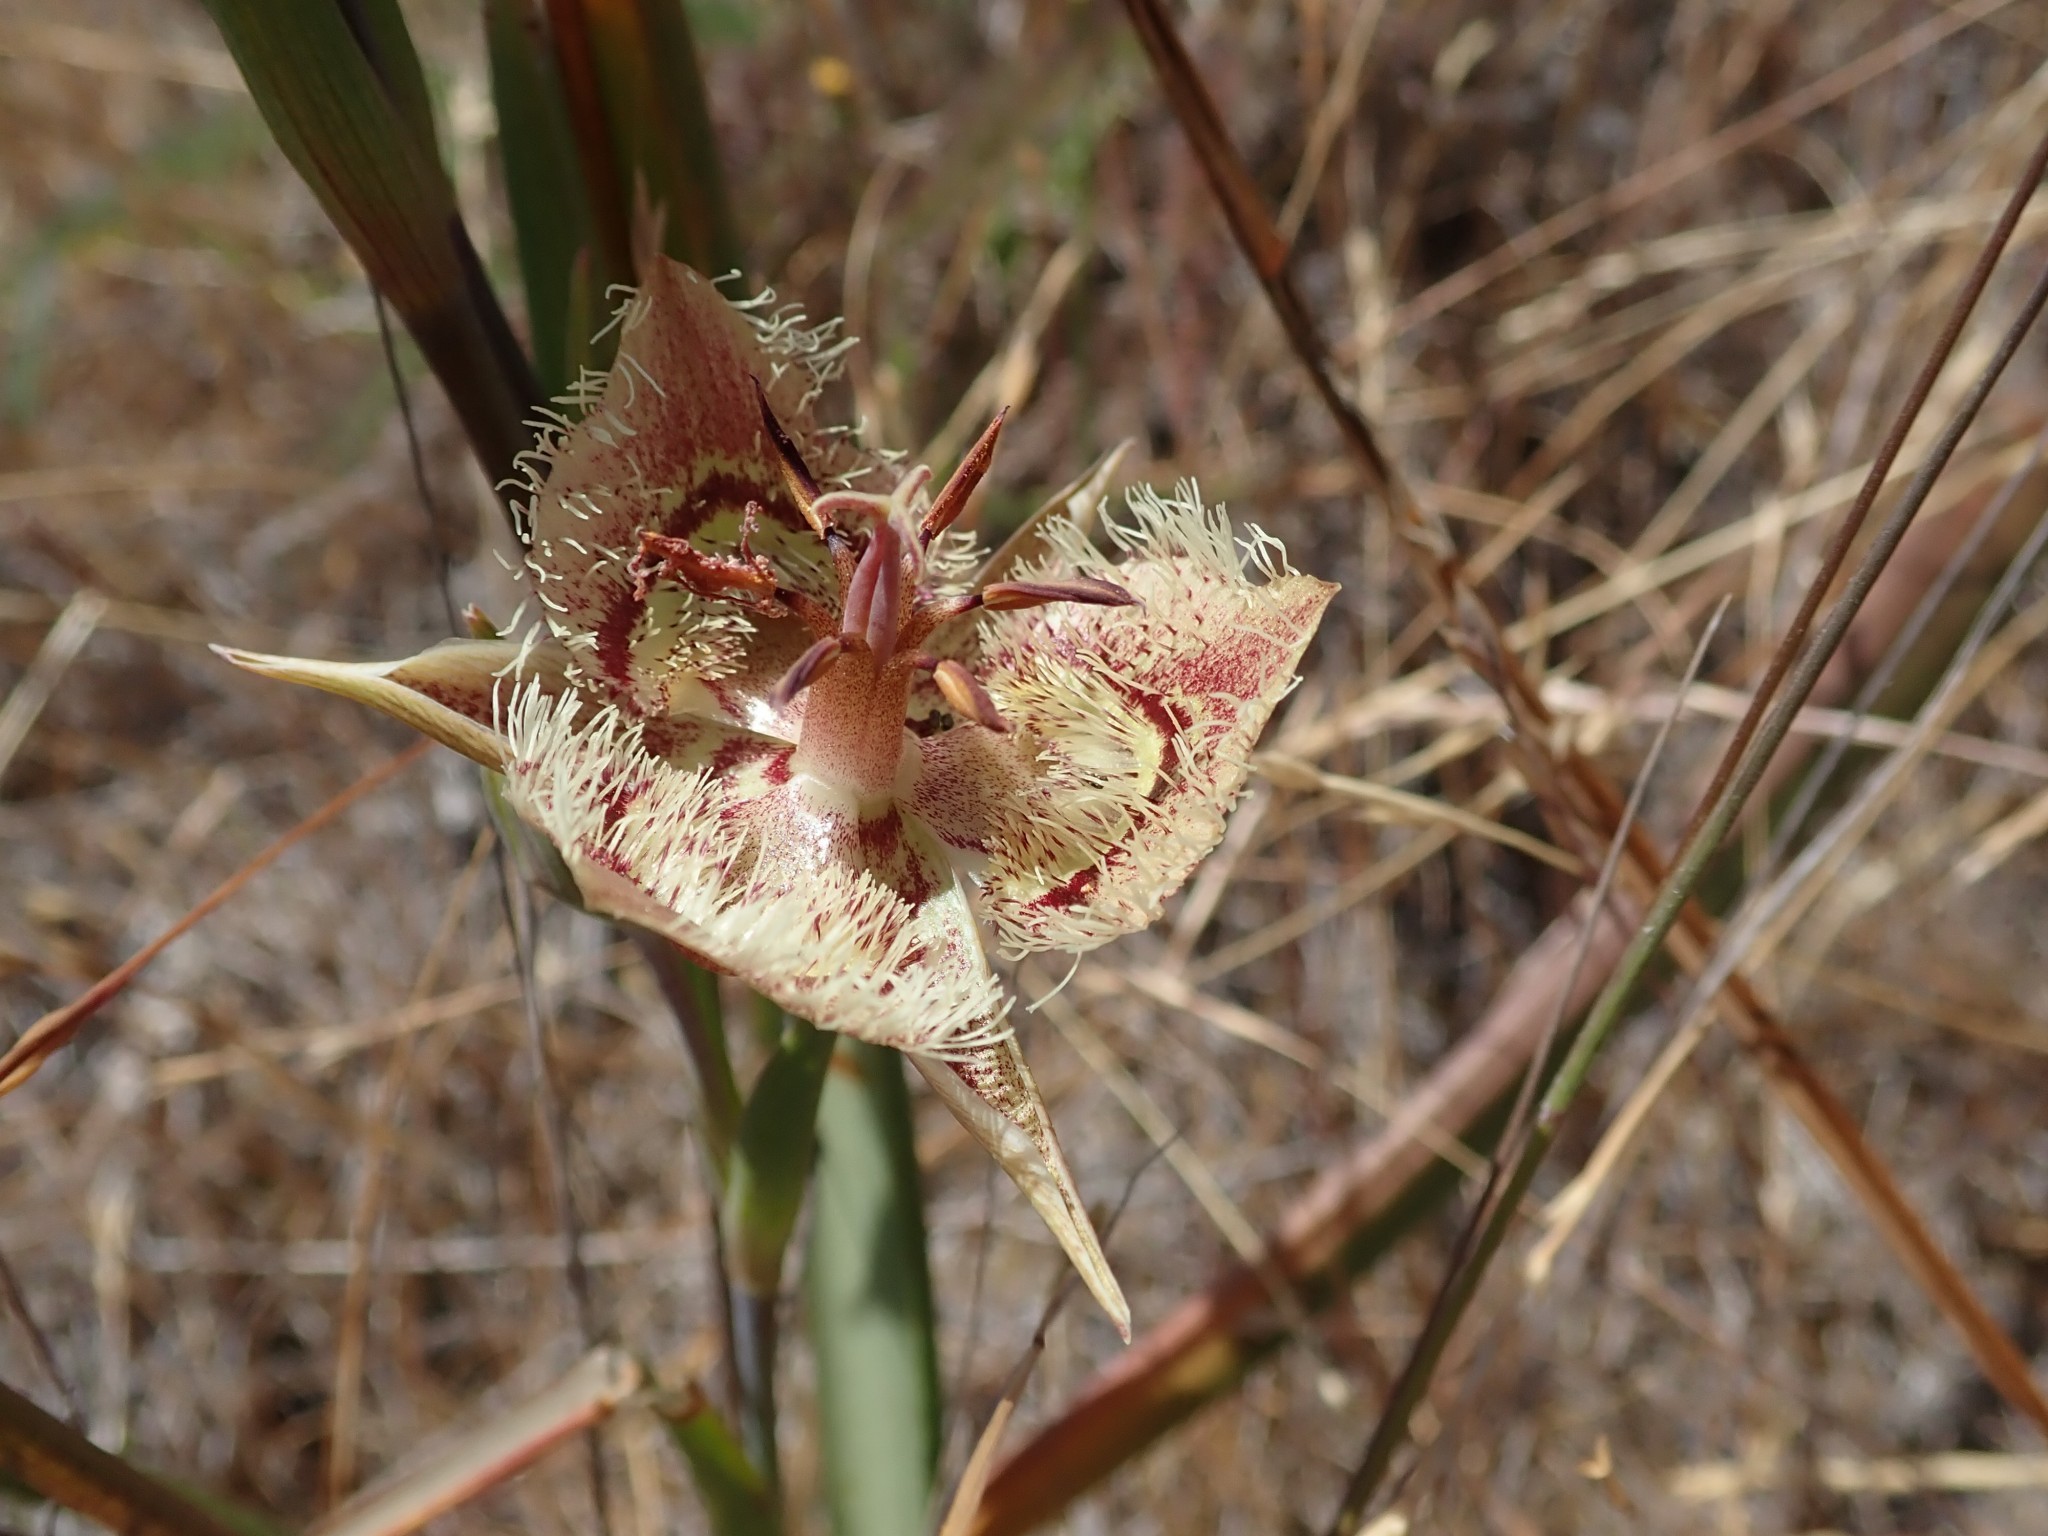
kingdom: Plantae
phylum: Tracheophyta
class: Liliopsida
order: Liliales
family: Liliaceae
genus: Calochortus
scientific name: Calochortus tiburonensis
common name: Tiburon mariposa-lily
